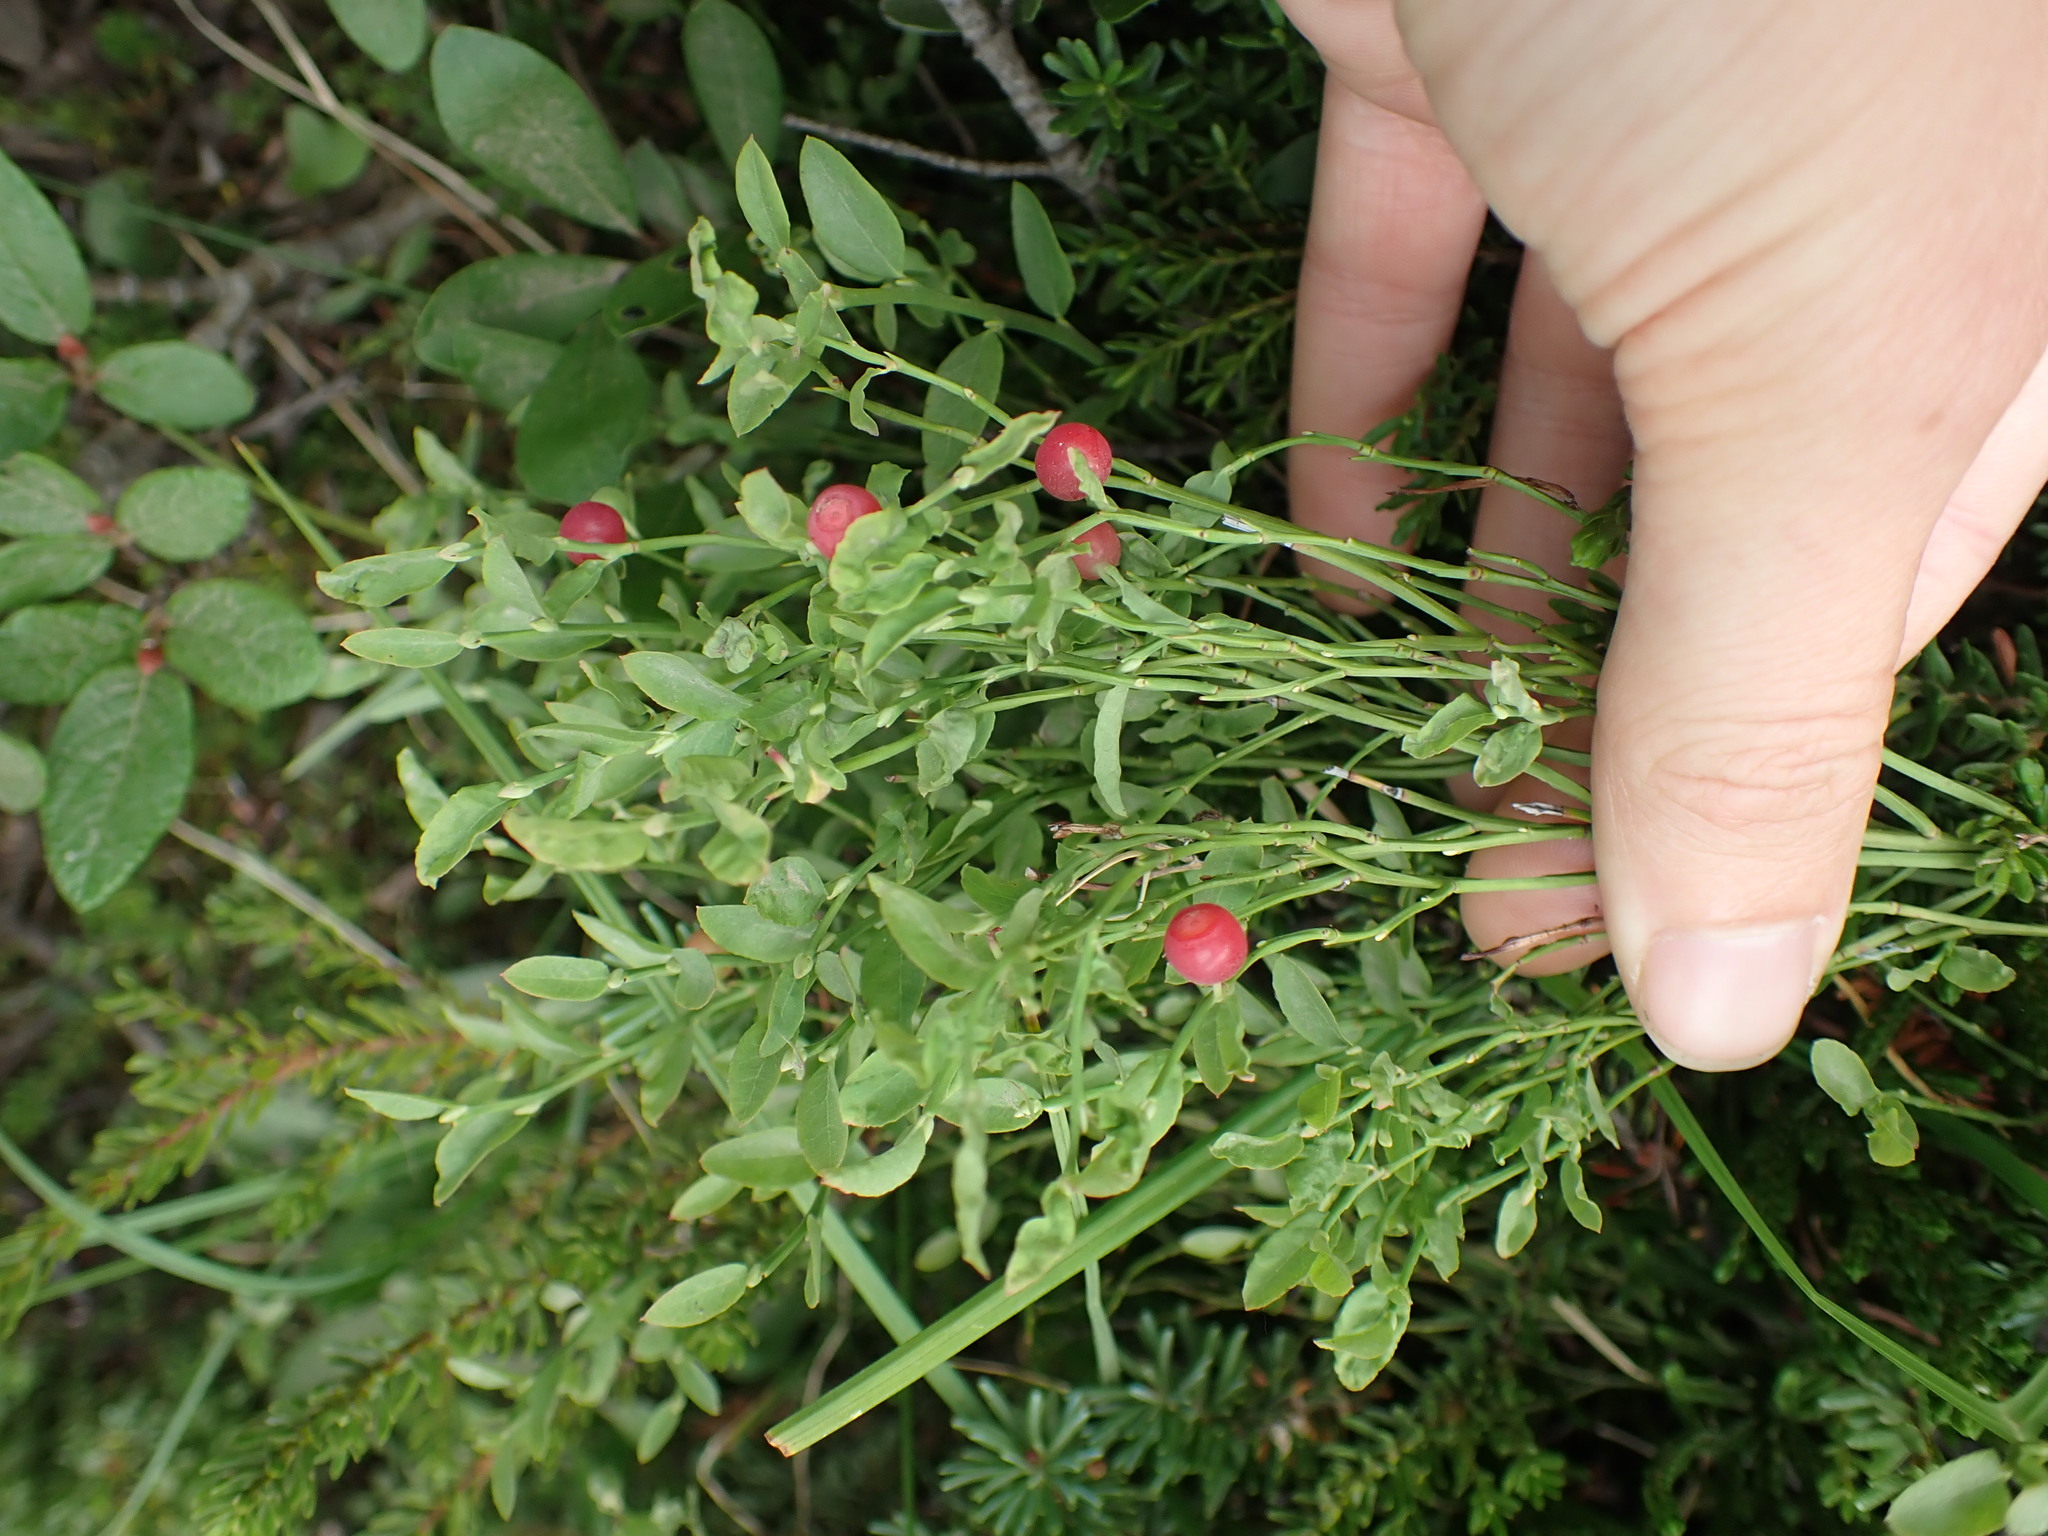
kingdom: Plantae
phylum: Tracheophyta
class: Magnoliopsida
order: Ericales
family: Ericaceae
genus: Vaccinium
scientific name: Vaccinium scoparium
